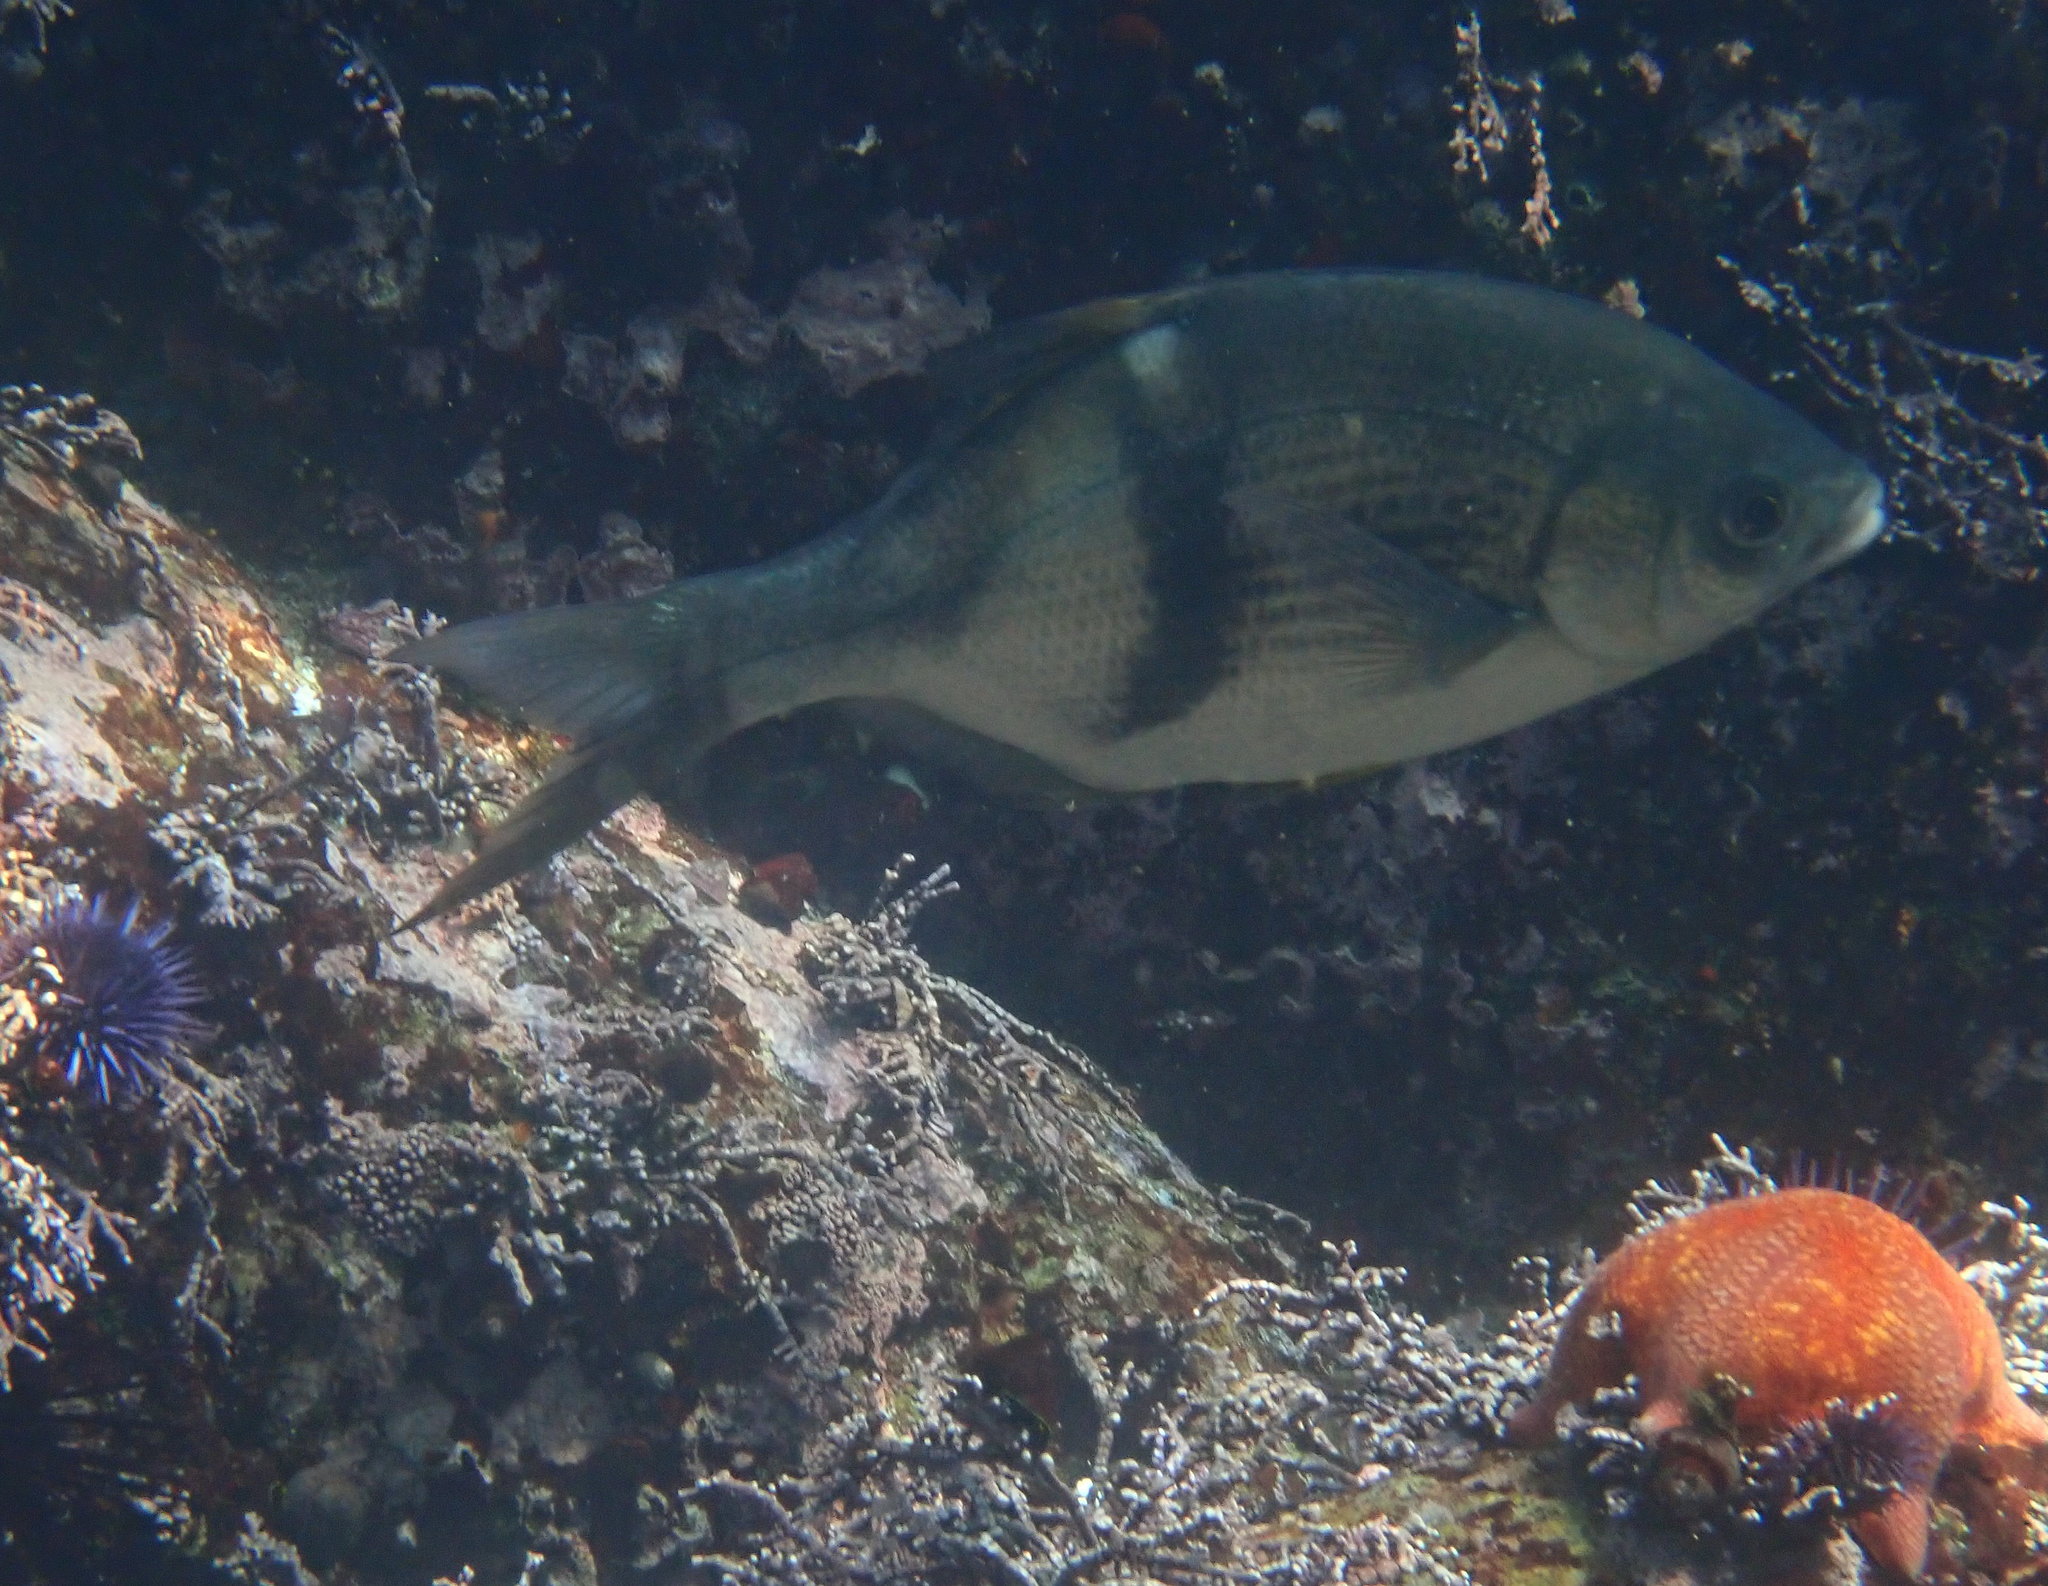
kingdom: Animalia
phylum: Chordata
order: Perciformes
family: Embiotocidae
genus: Rhacochilus
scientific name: Rhacochilus vacca
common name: Pile perch
